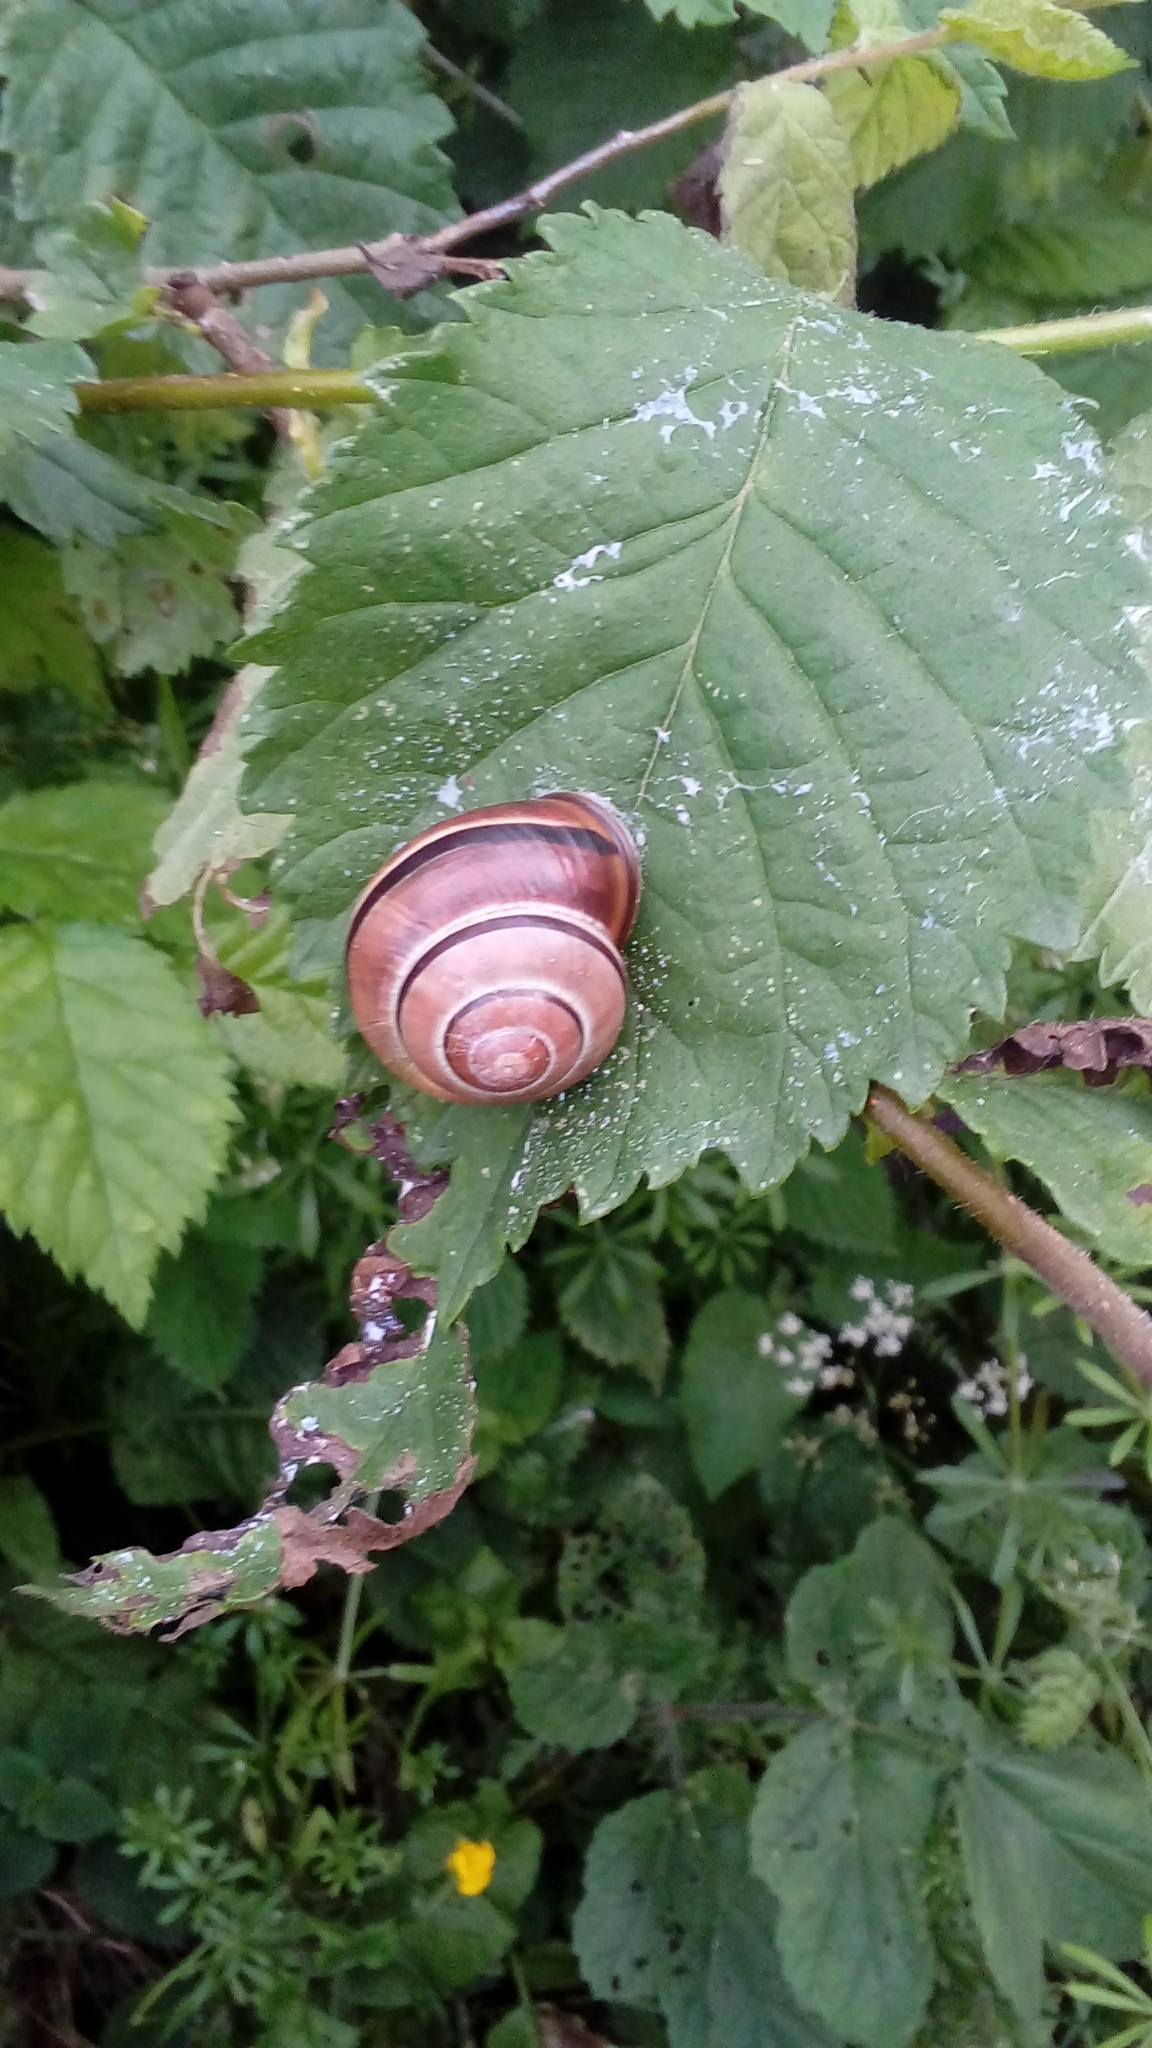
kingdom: Animalia
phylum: Mollusca
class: Gastropoda
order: Stylommatophora
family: Helicidae
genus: Cepaea
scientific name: Cepaea nemoralis
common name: Grovesnail
